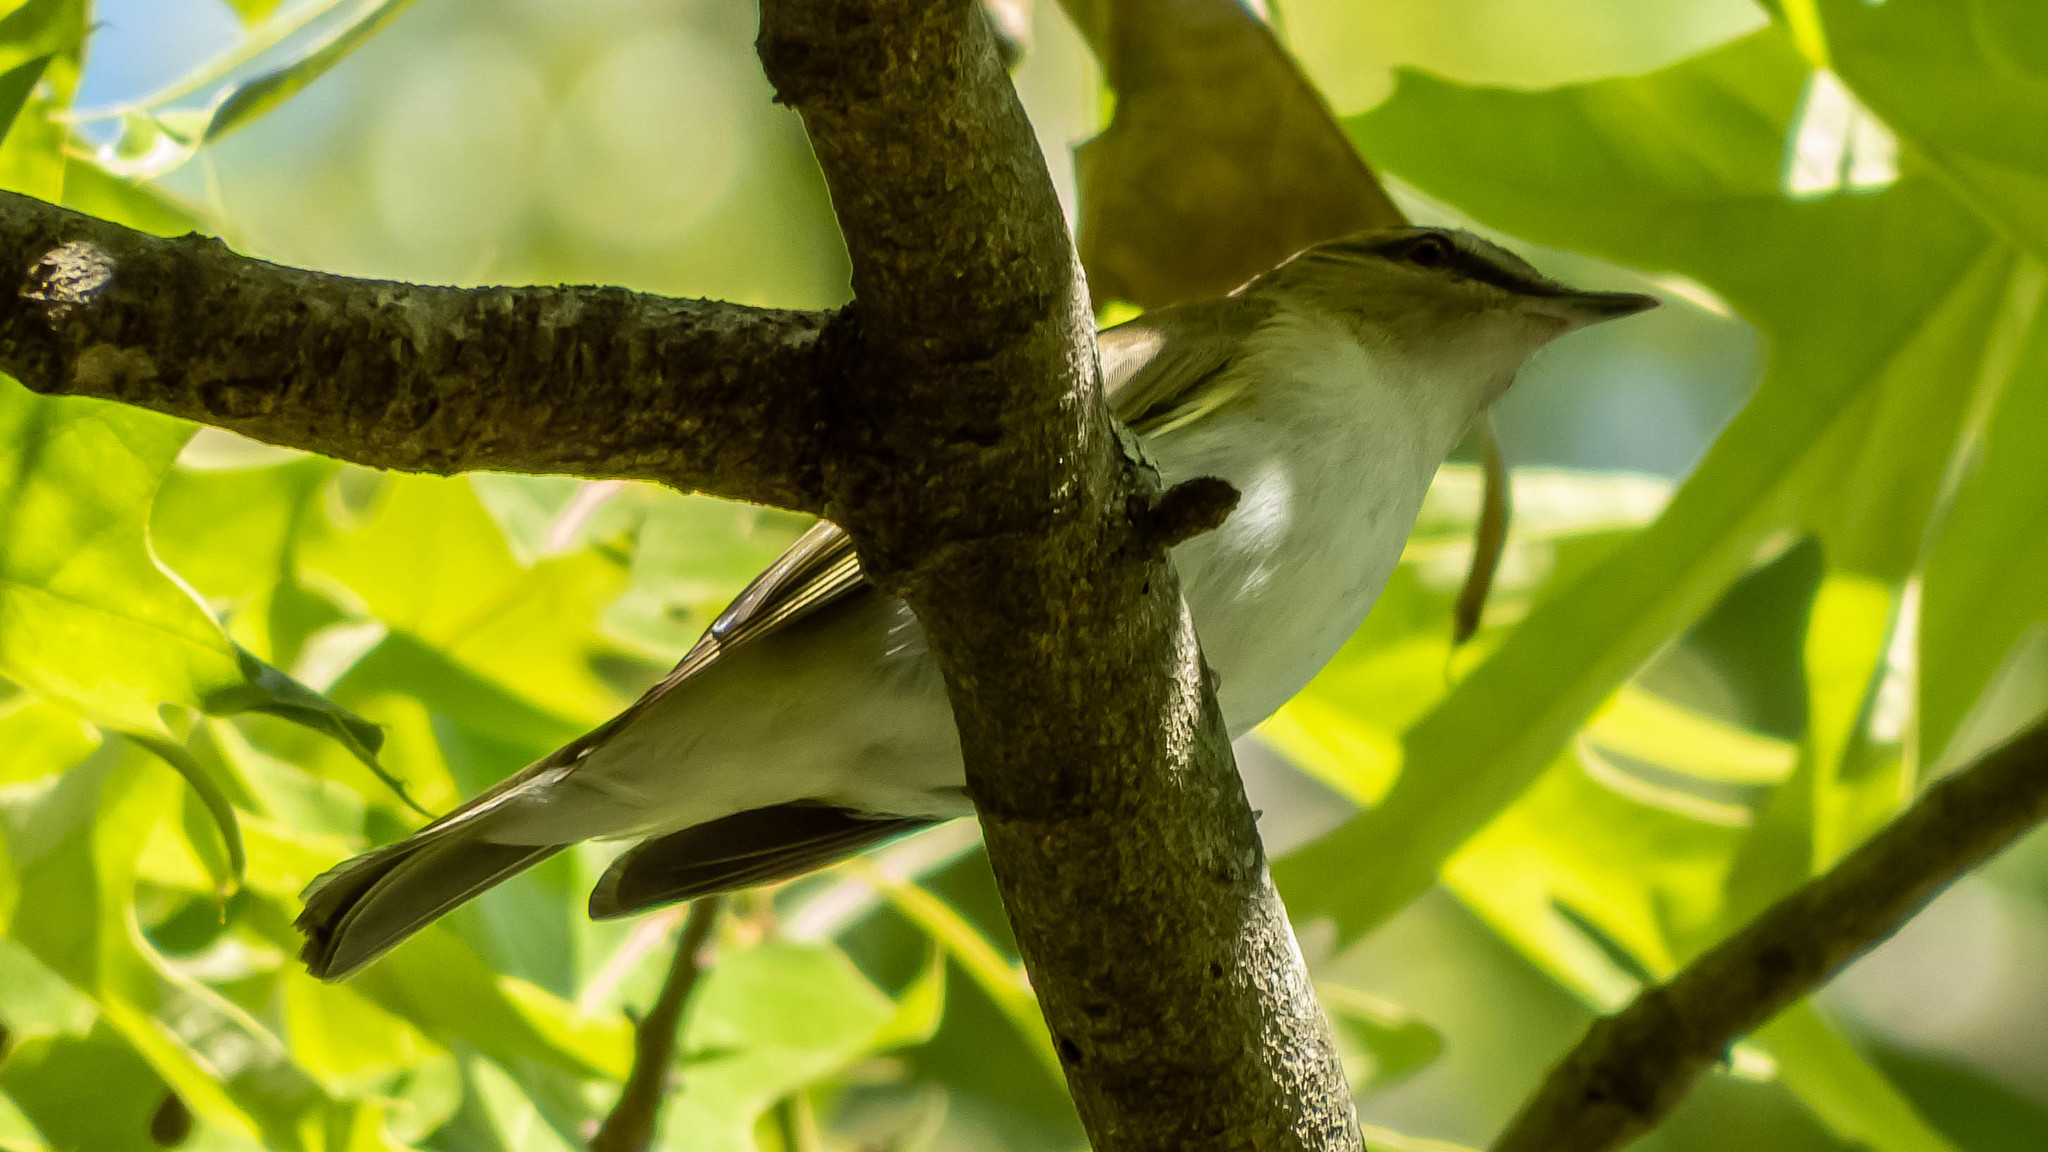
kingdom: Animalia
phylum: Chordata
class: Aves
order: Passeriformes
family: Vireonidae
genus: Vireo
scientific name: Vireo olivaceus
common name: Red-eyed vireo
